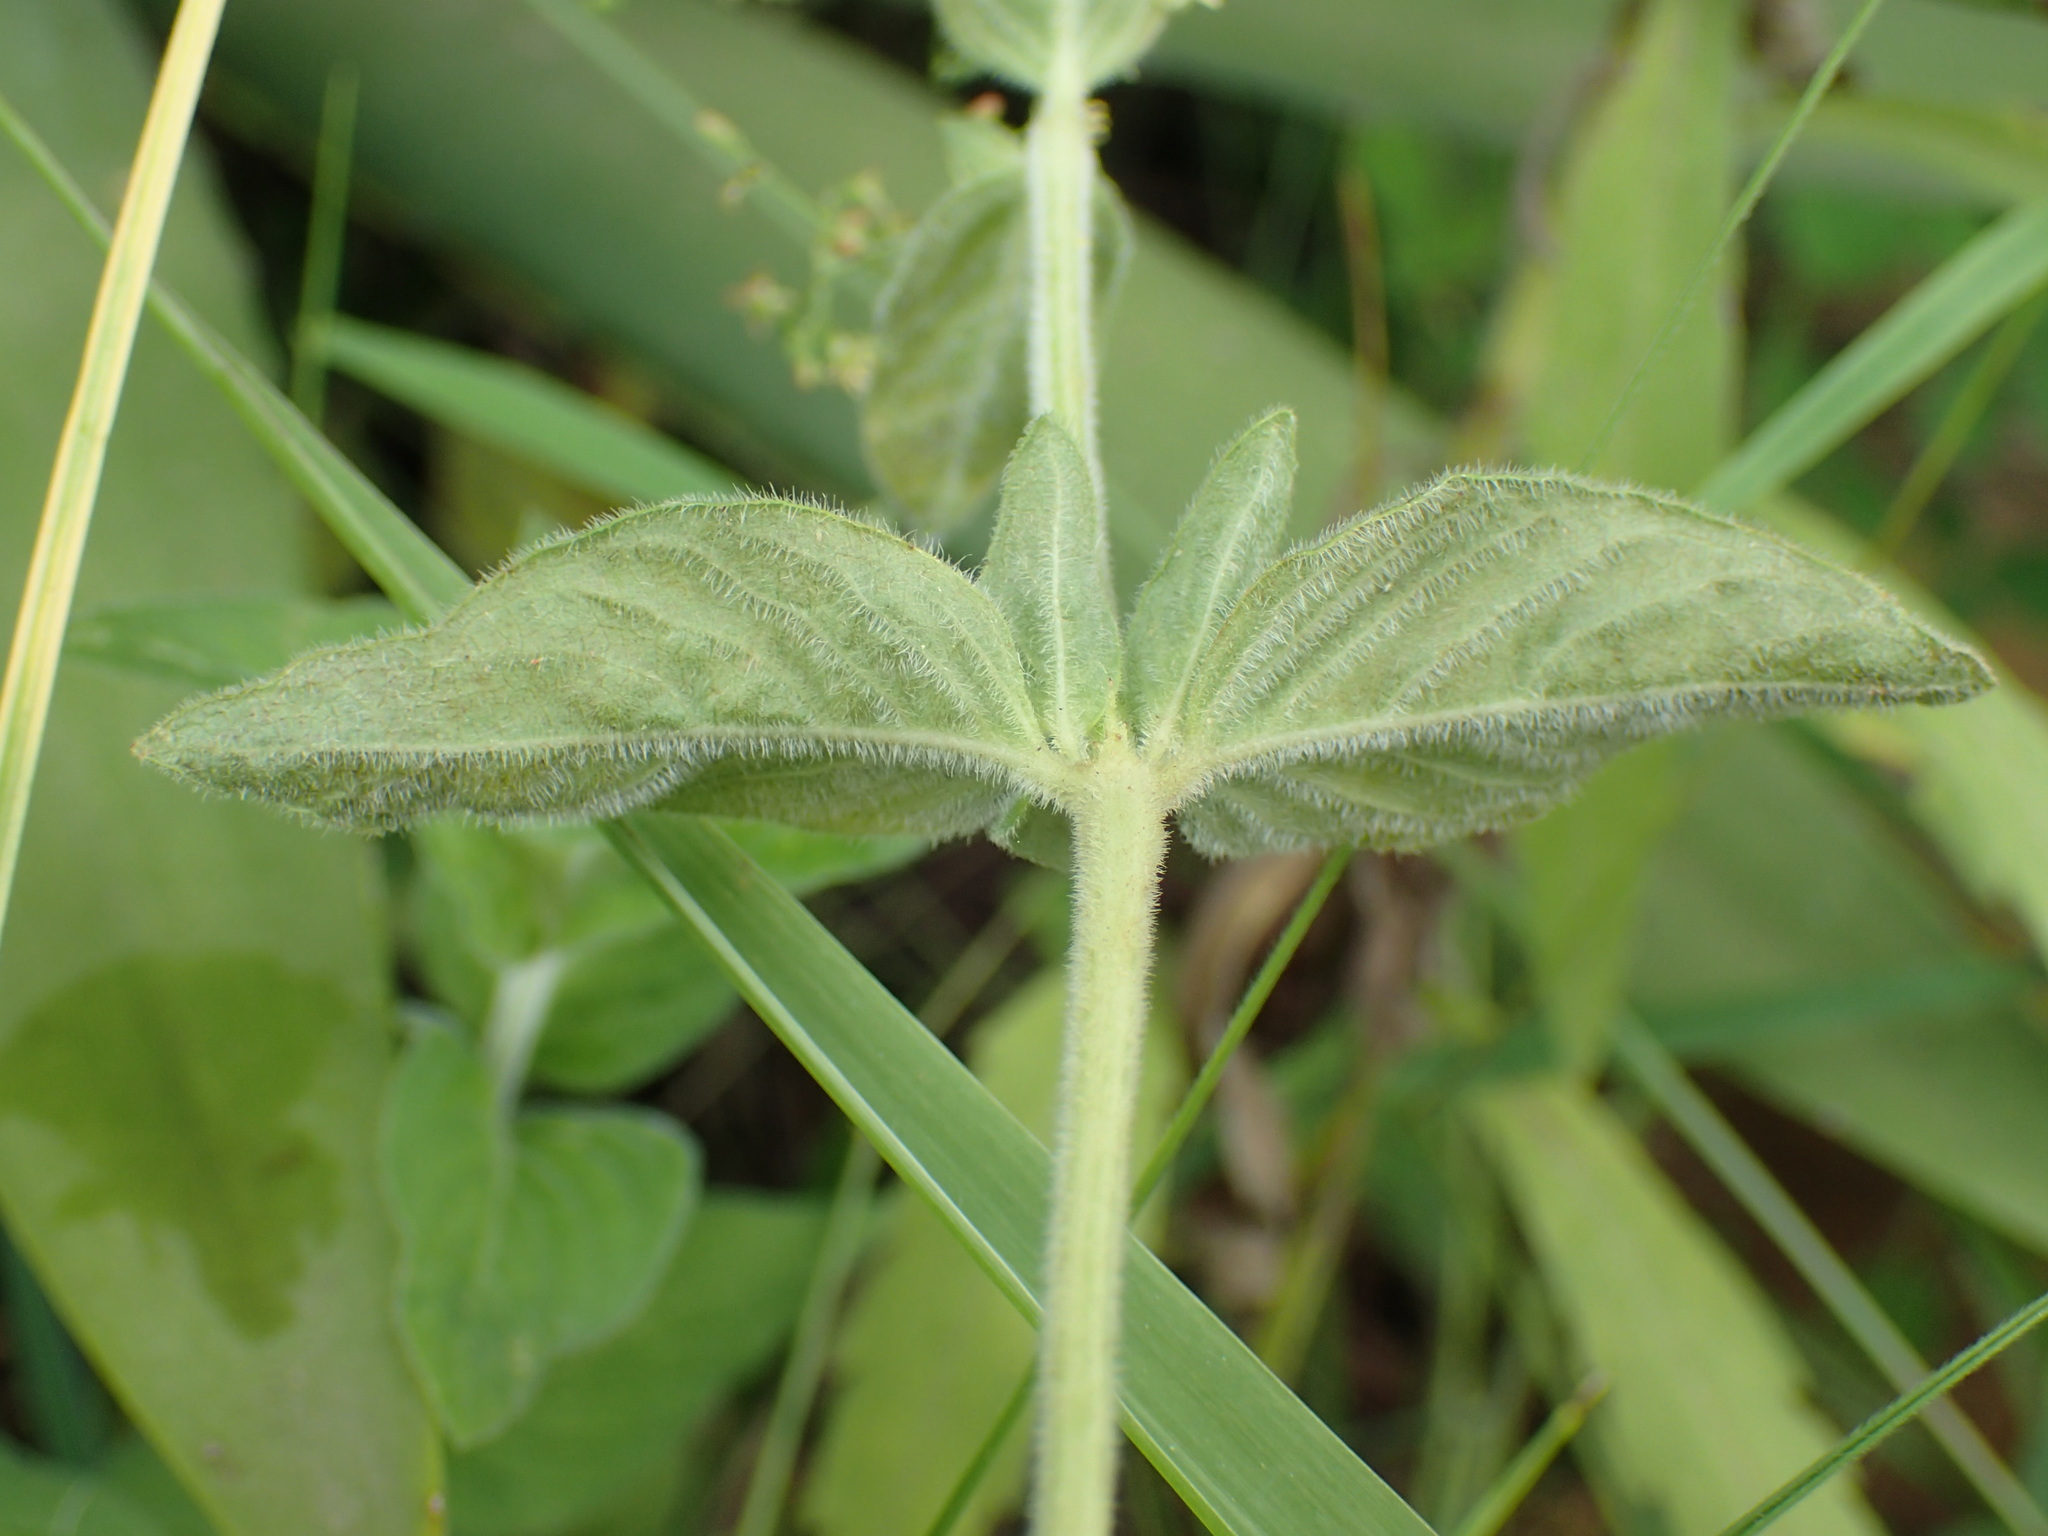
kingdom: Plantae
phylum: Tracheophyta
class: Magnoliopsida
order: Gentianales
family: Rubiaceae
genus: Galopina
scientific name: Galopina circaeoides
